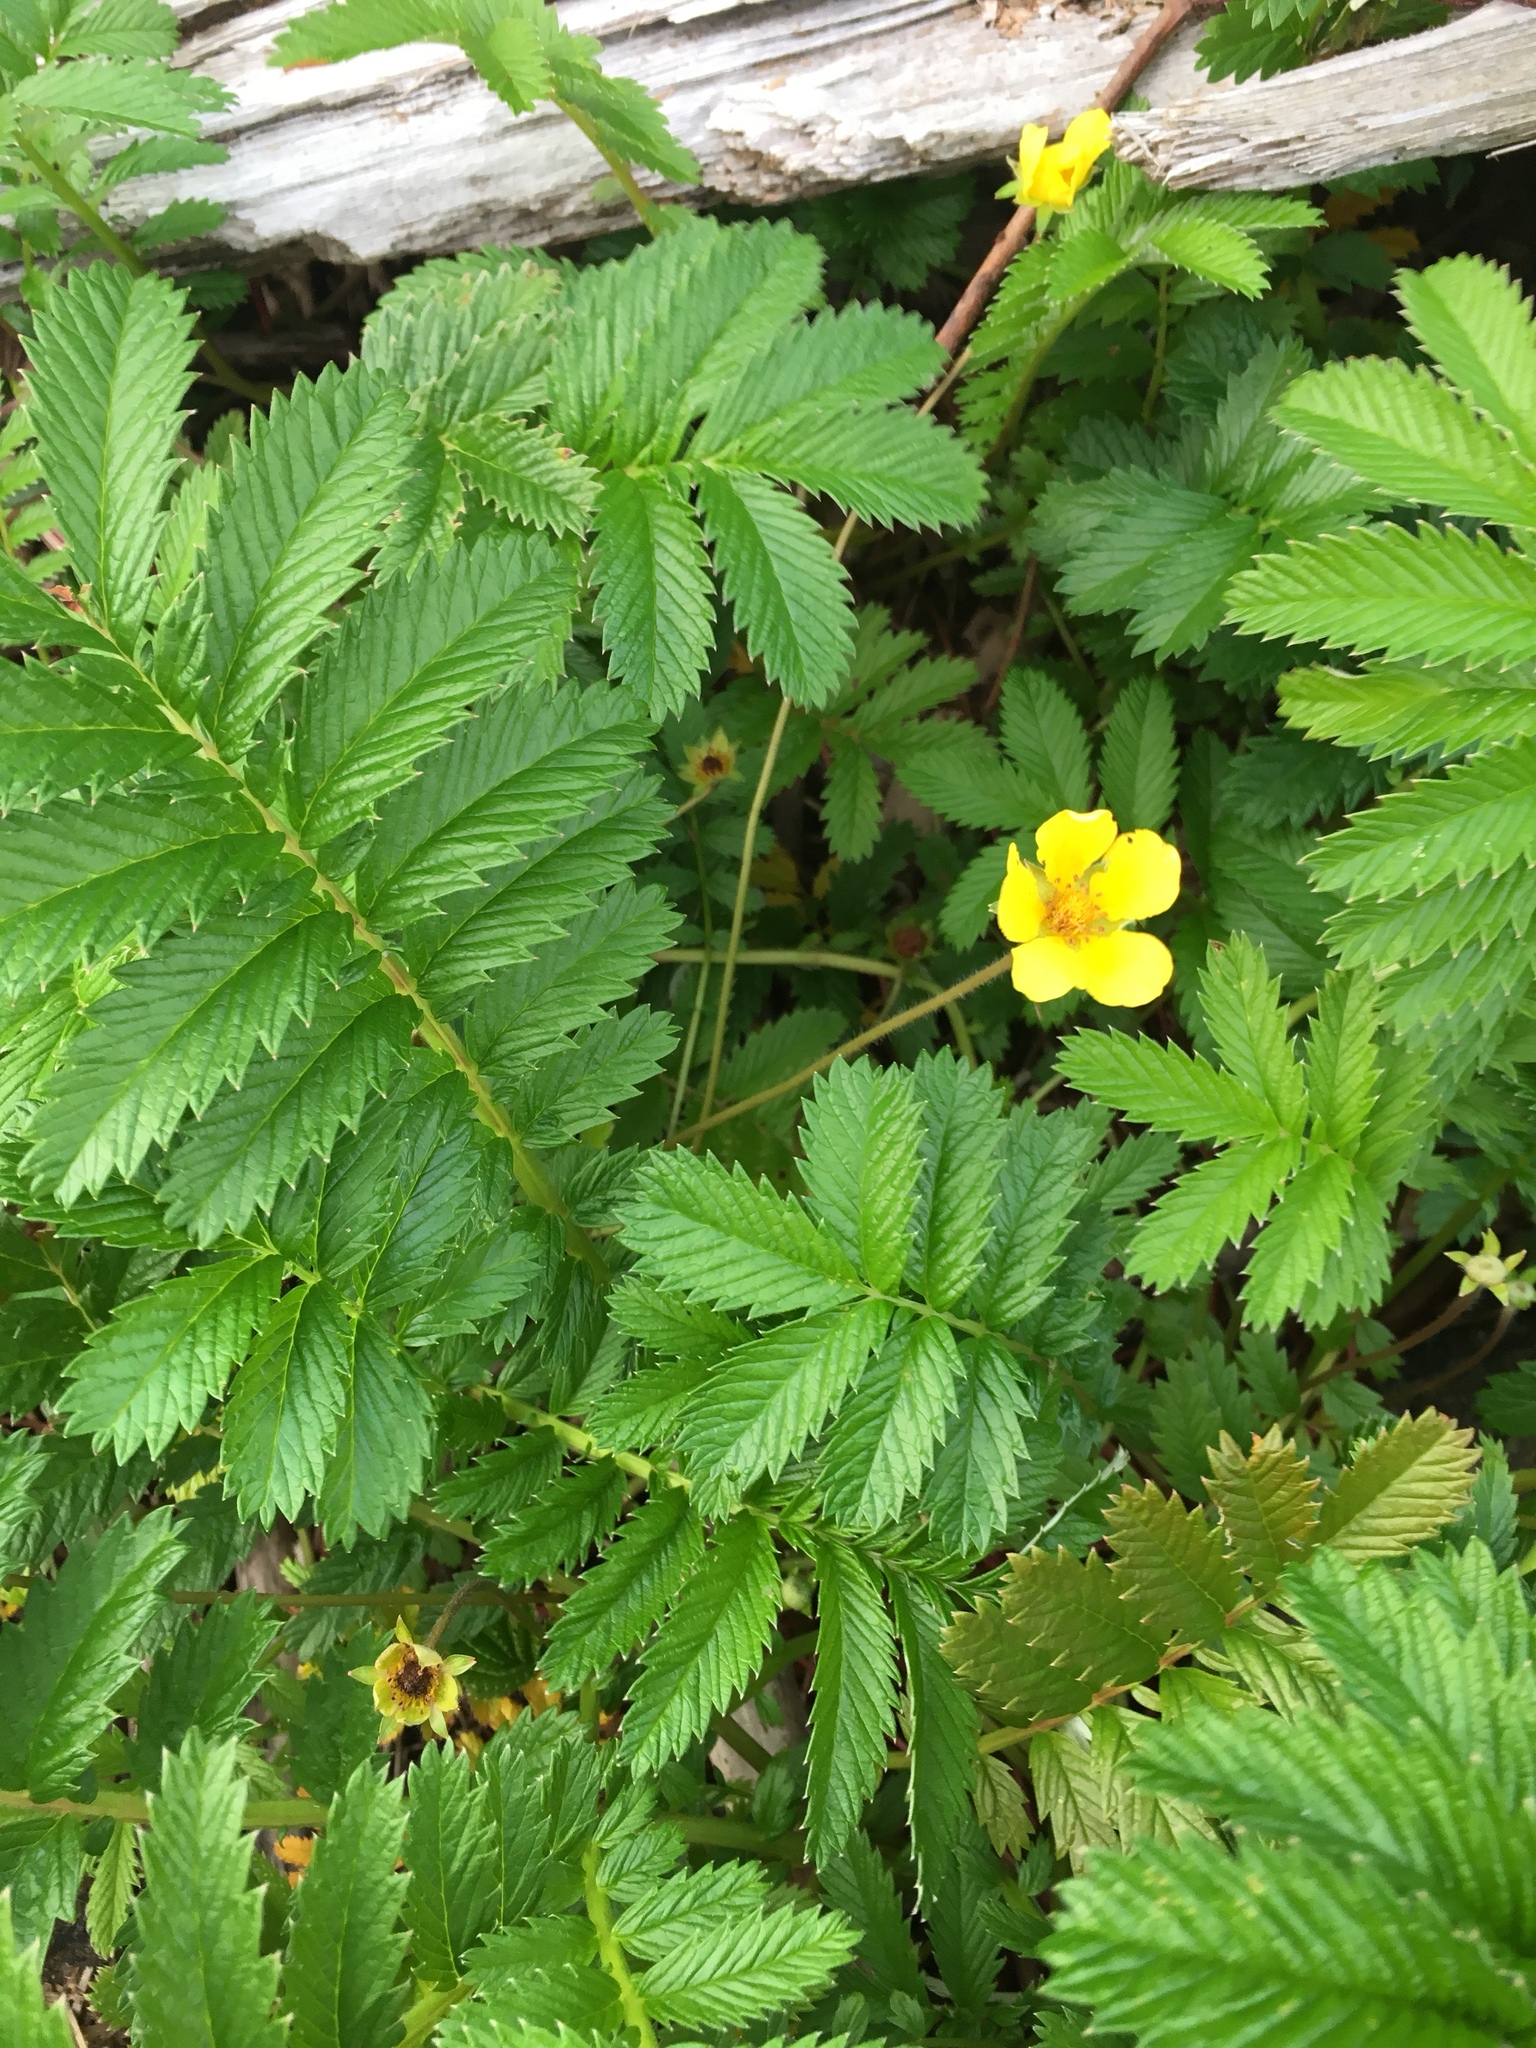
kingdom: Plantae
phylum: Tracheophyta
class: Magnoliopsida
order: Rosales
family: Rosaceae
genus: Argentina
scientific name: Argentina anserina
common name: Common silverweed
